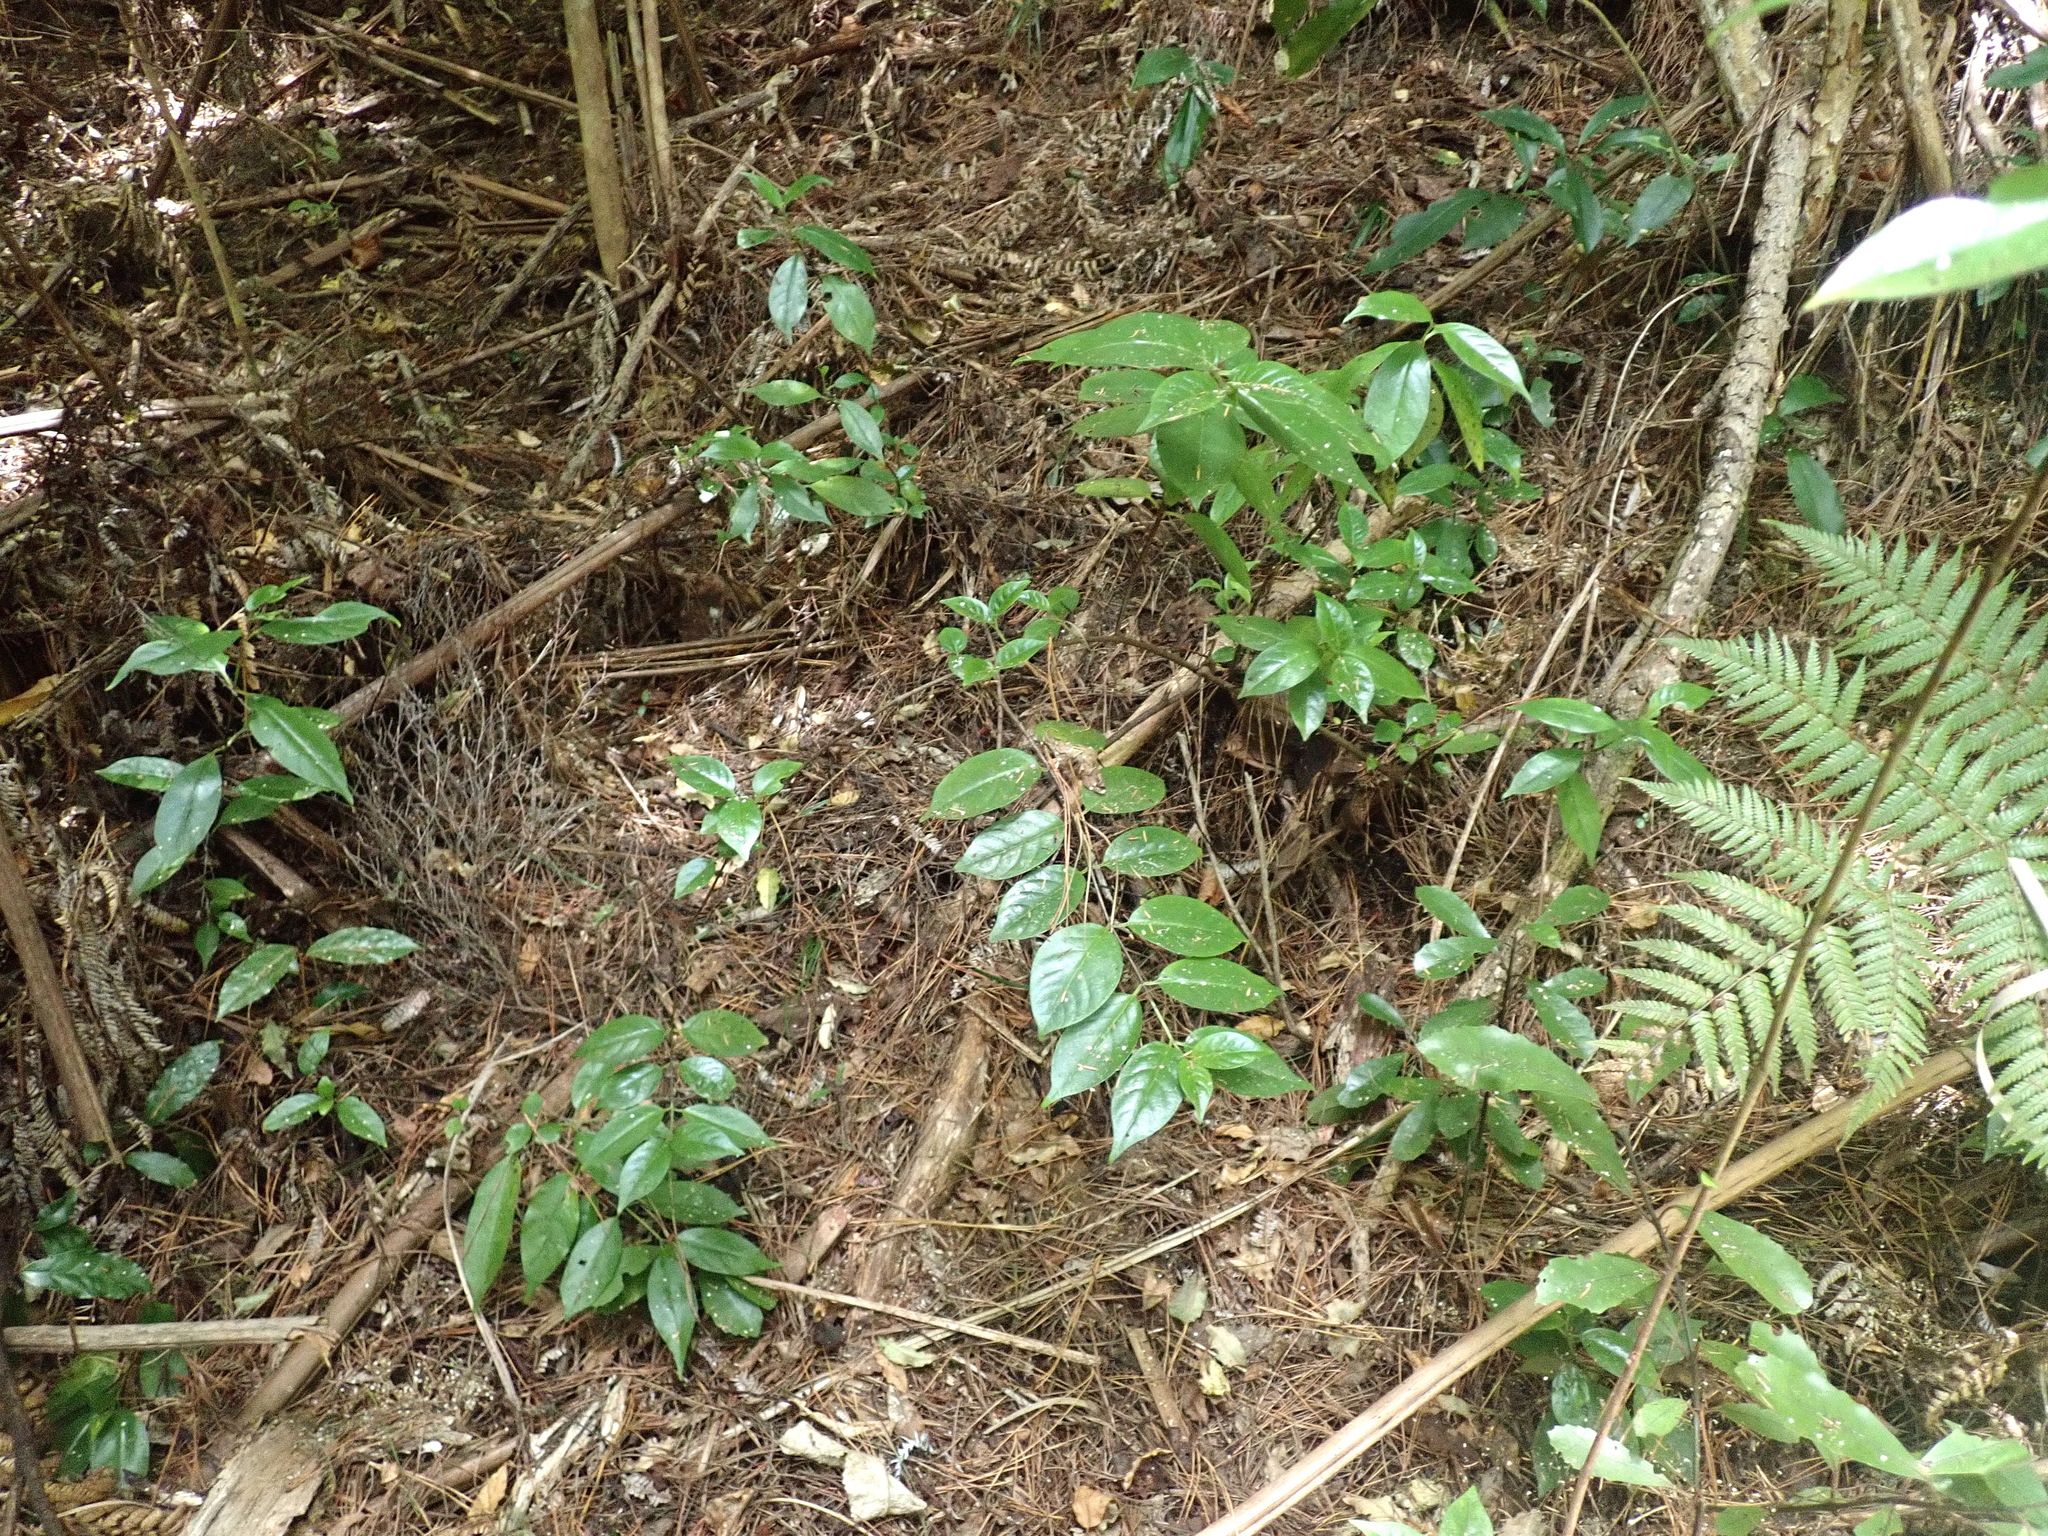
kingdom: Plantae
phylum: Tracheophyta
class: Magnoliopsida
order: Gentianales
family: Loganiaceae
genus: Geniostoma
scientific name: Geniostoma ligustrifolium
